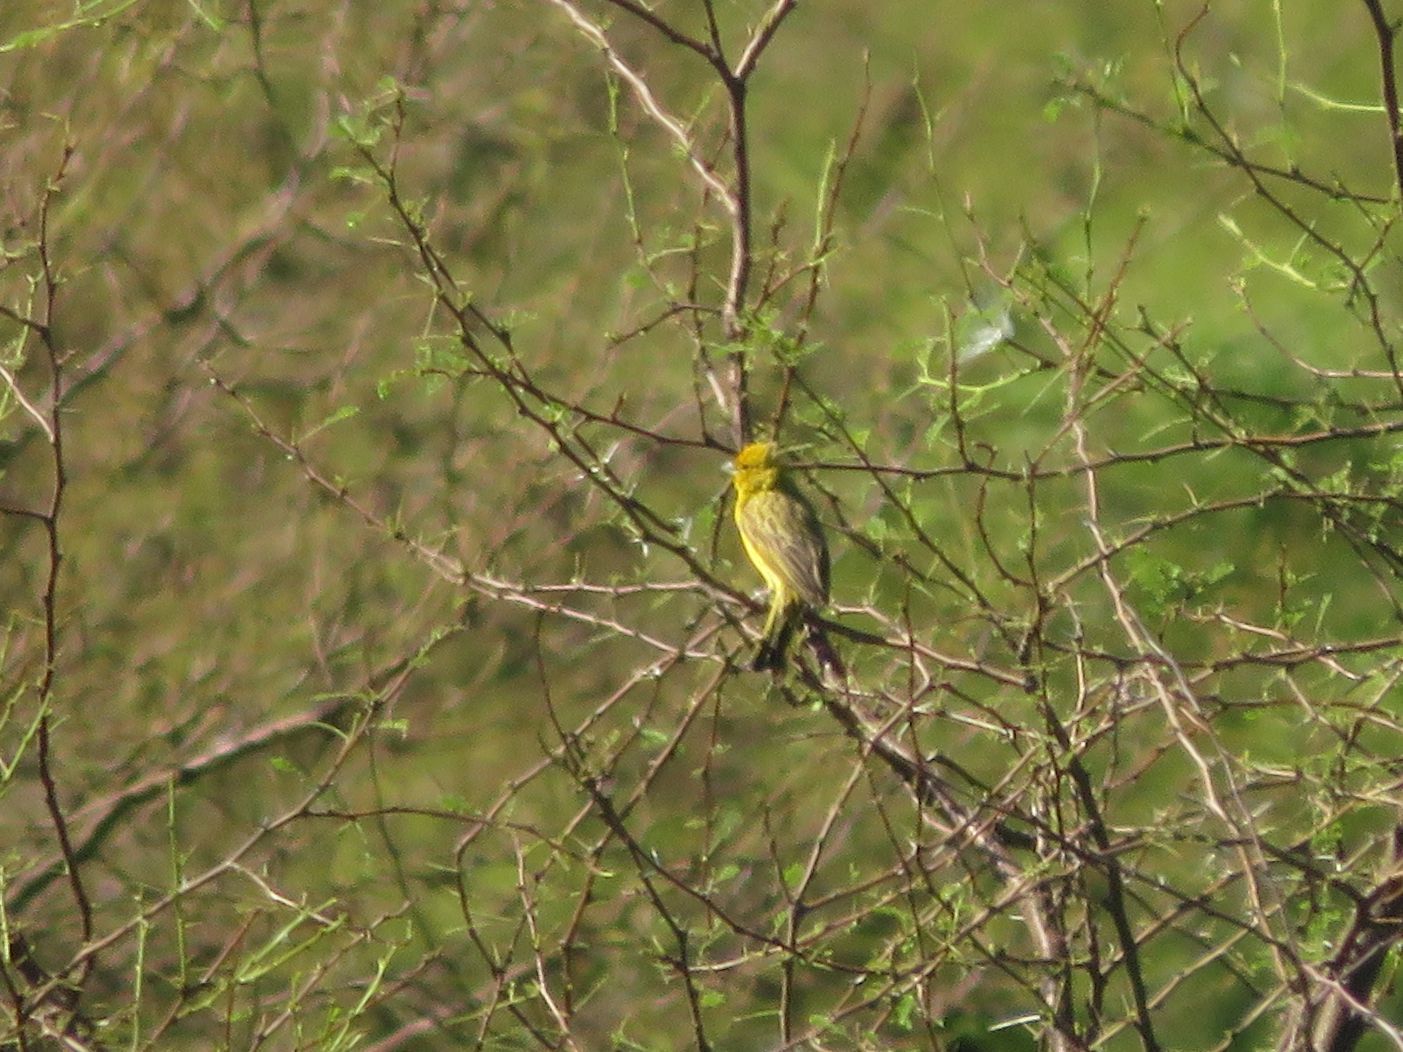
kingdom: Animalia
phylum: Chordata
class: Aves
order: Passeriformes
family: Thraupidae
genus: Sicalis
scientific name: Sicalis flaveola
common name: Saffron finch
